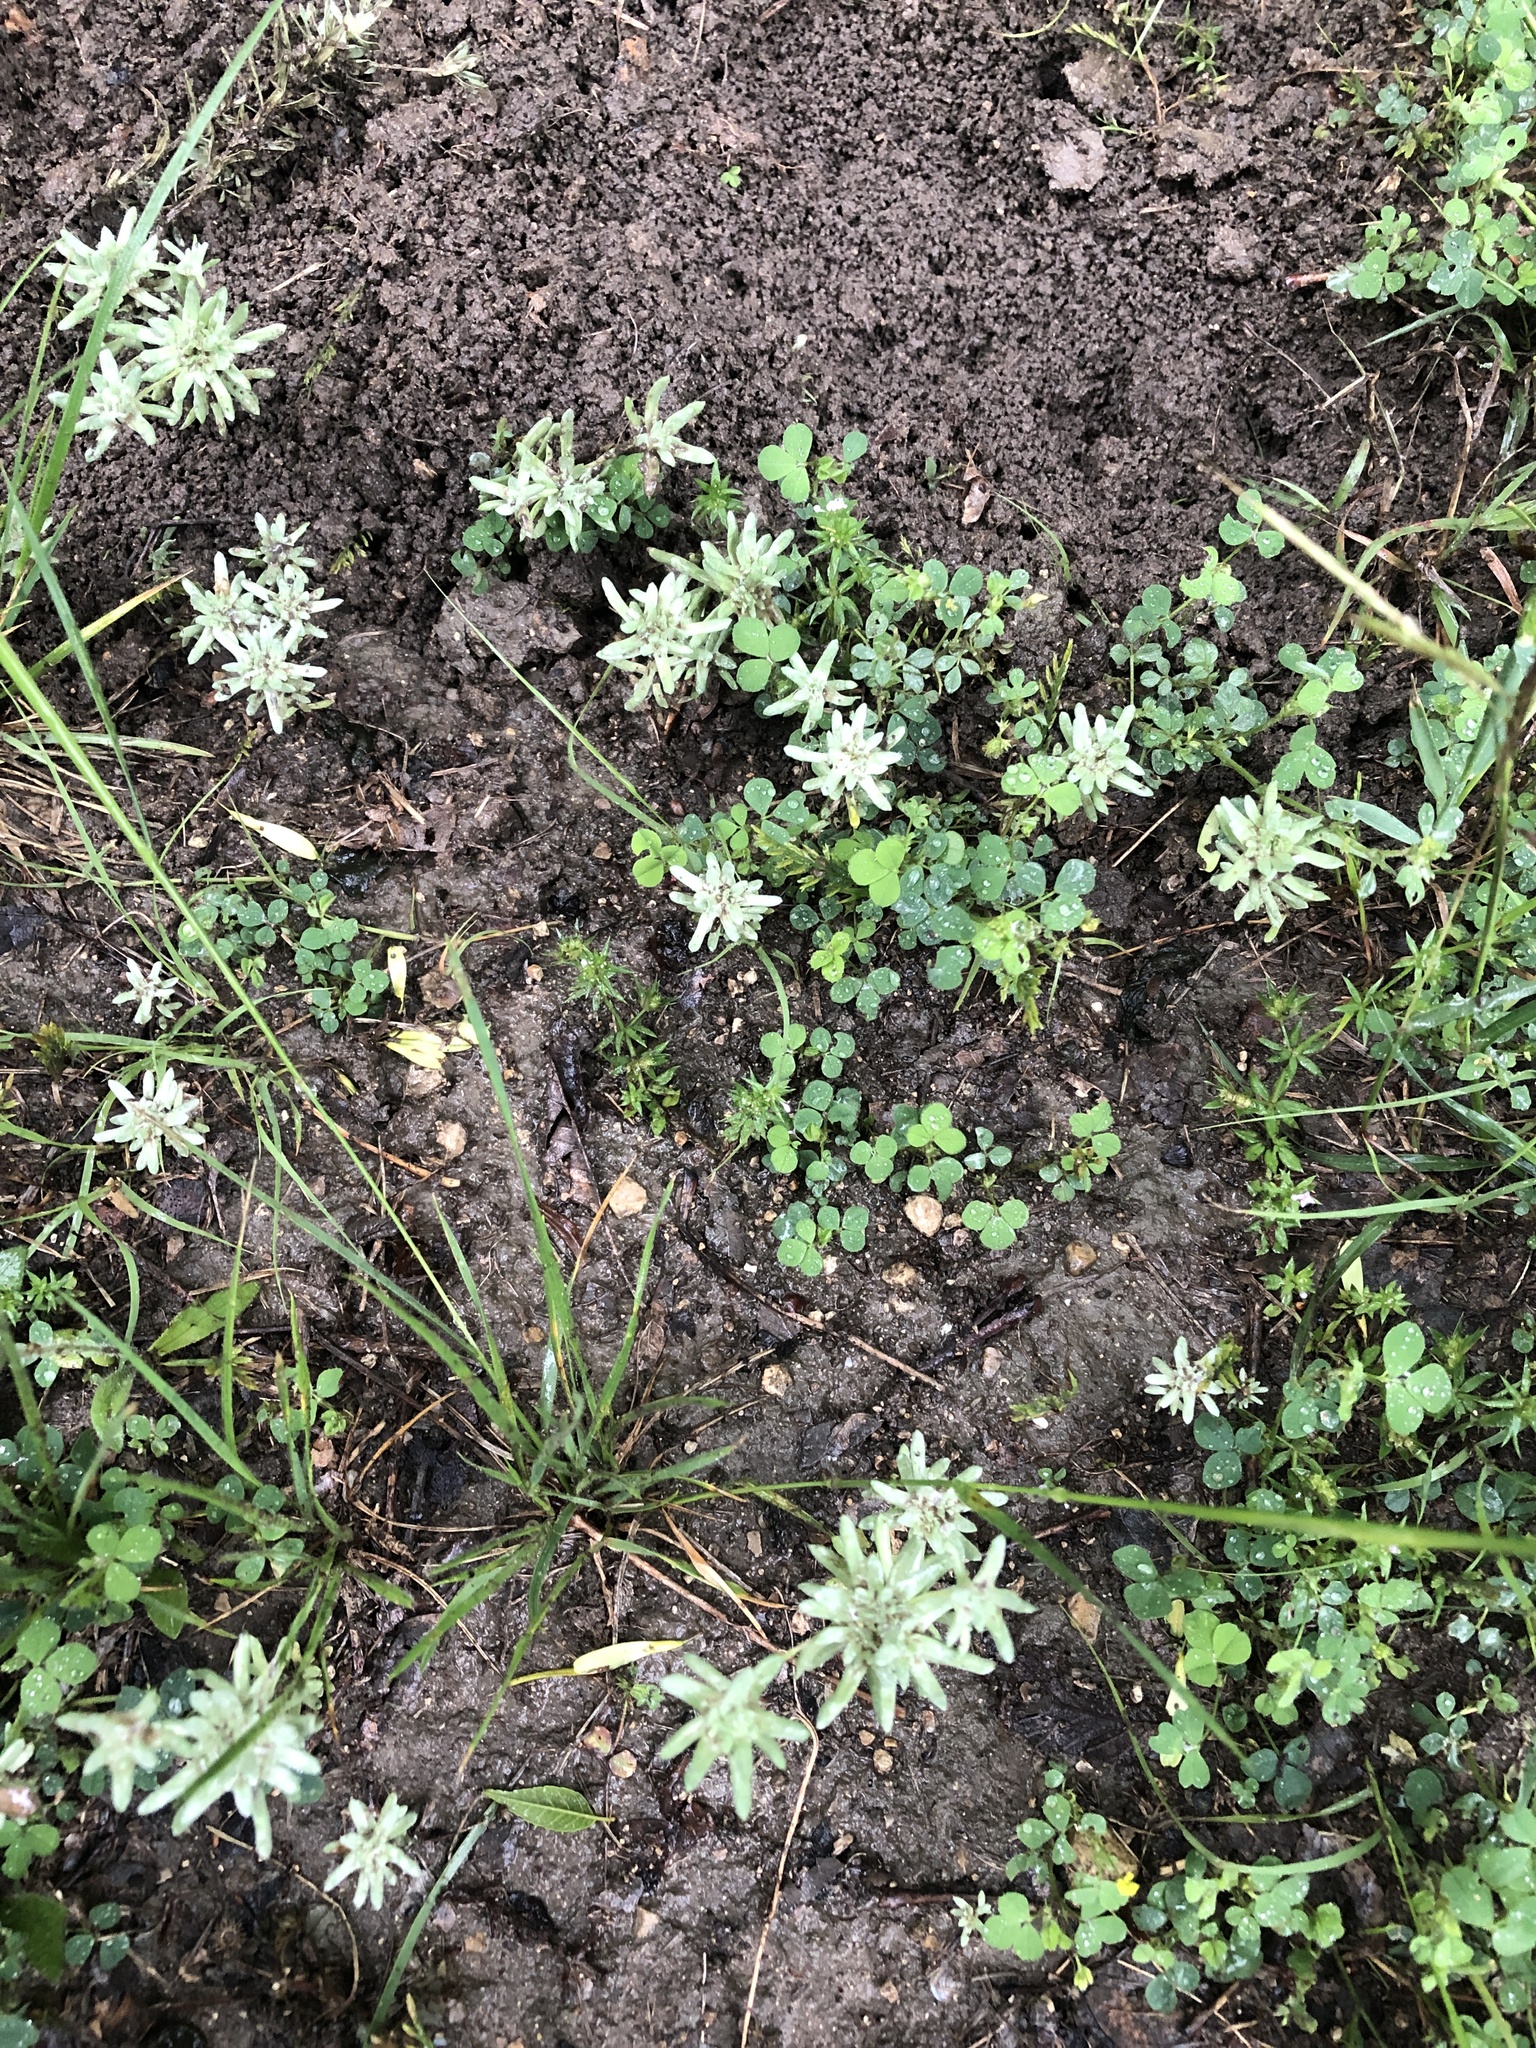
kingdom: Plantae
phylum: Tracheophyta
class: Magnoliopsida
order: Asterales
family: Asteraceae
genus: Diaperia
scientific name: Diaperia prolifera
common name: Big-head rabbit-tobacco
